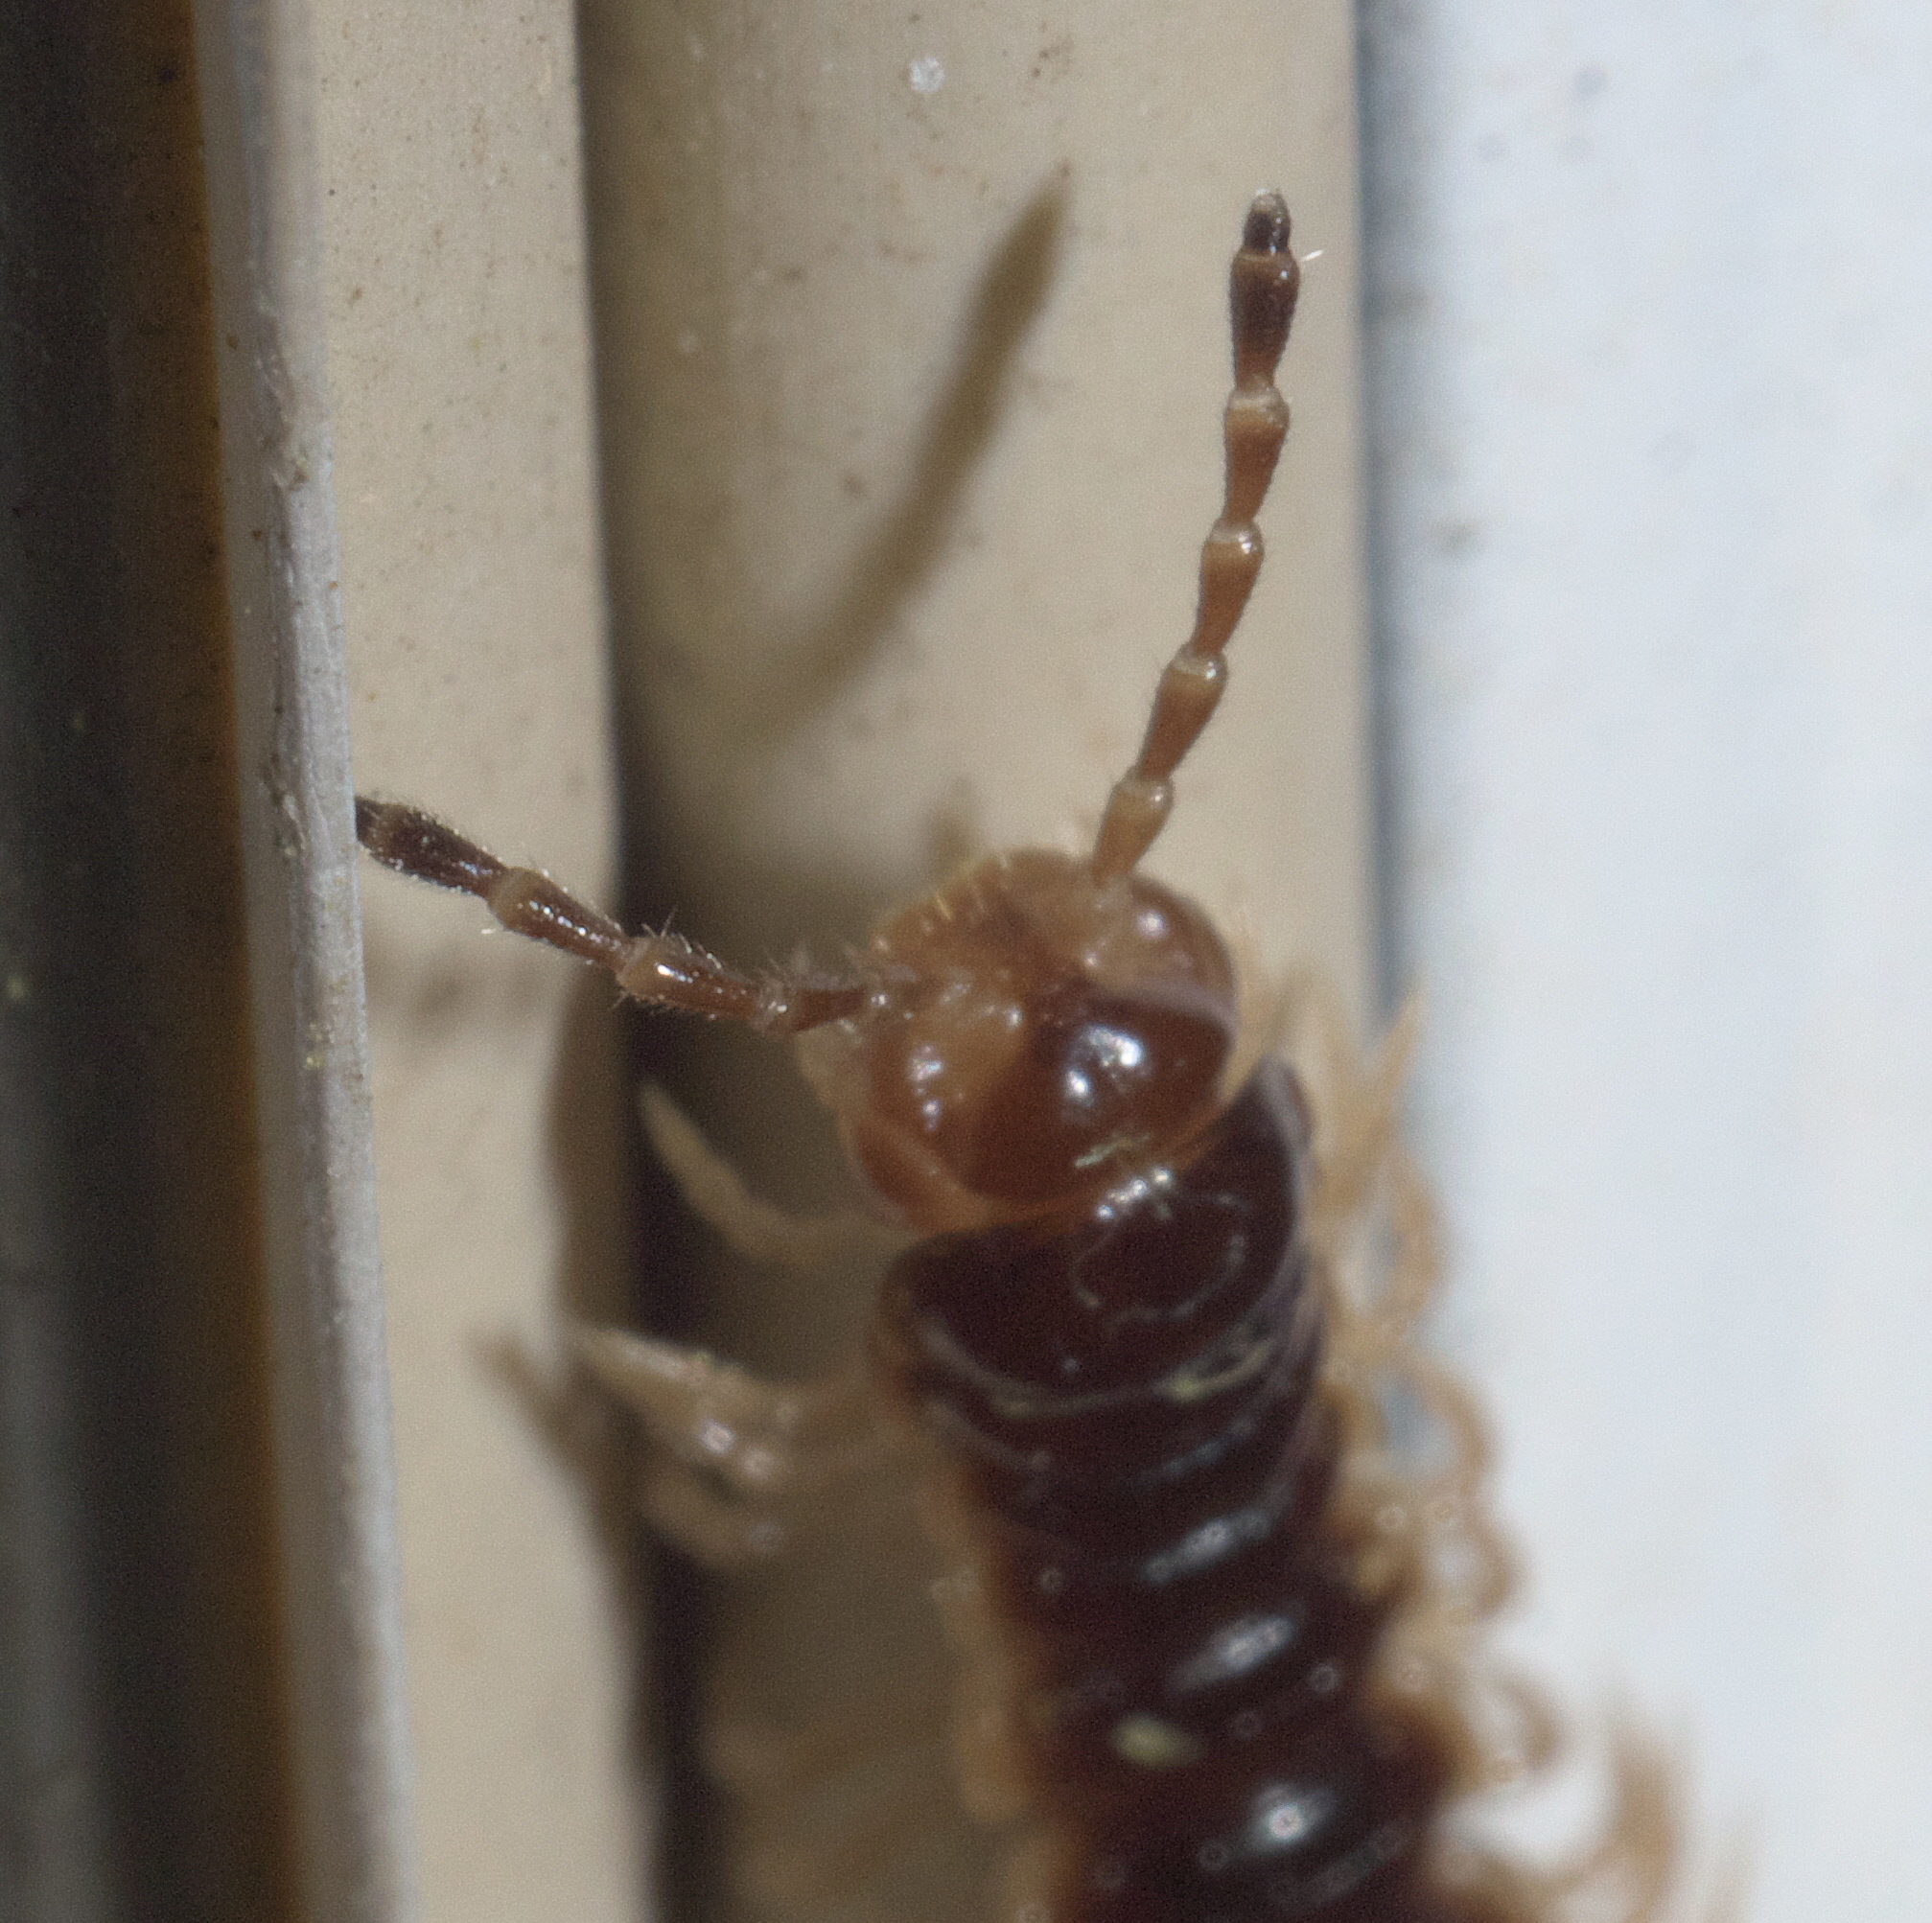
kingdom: Animalia
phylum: Arthropoda
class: Diplopoda
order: Polydesmida
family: Paradoxosomatidae
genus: Oxidus
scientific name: Oxidus gracilis
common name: Greenhouse millipede
